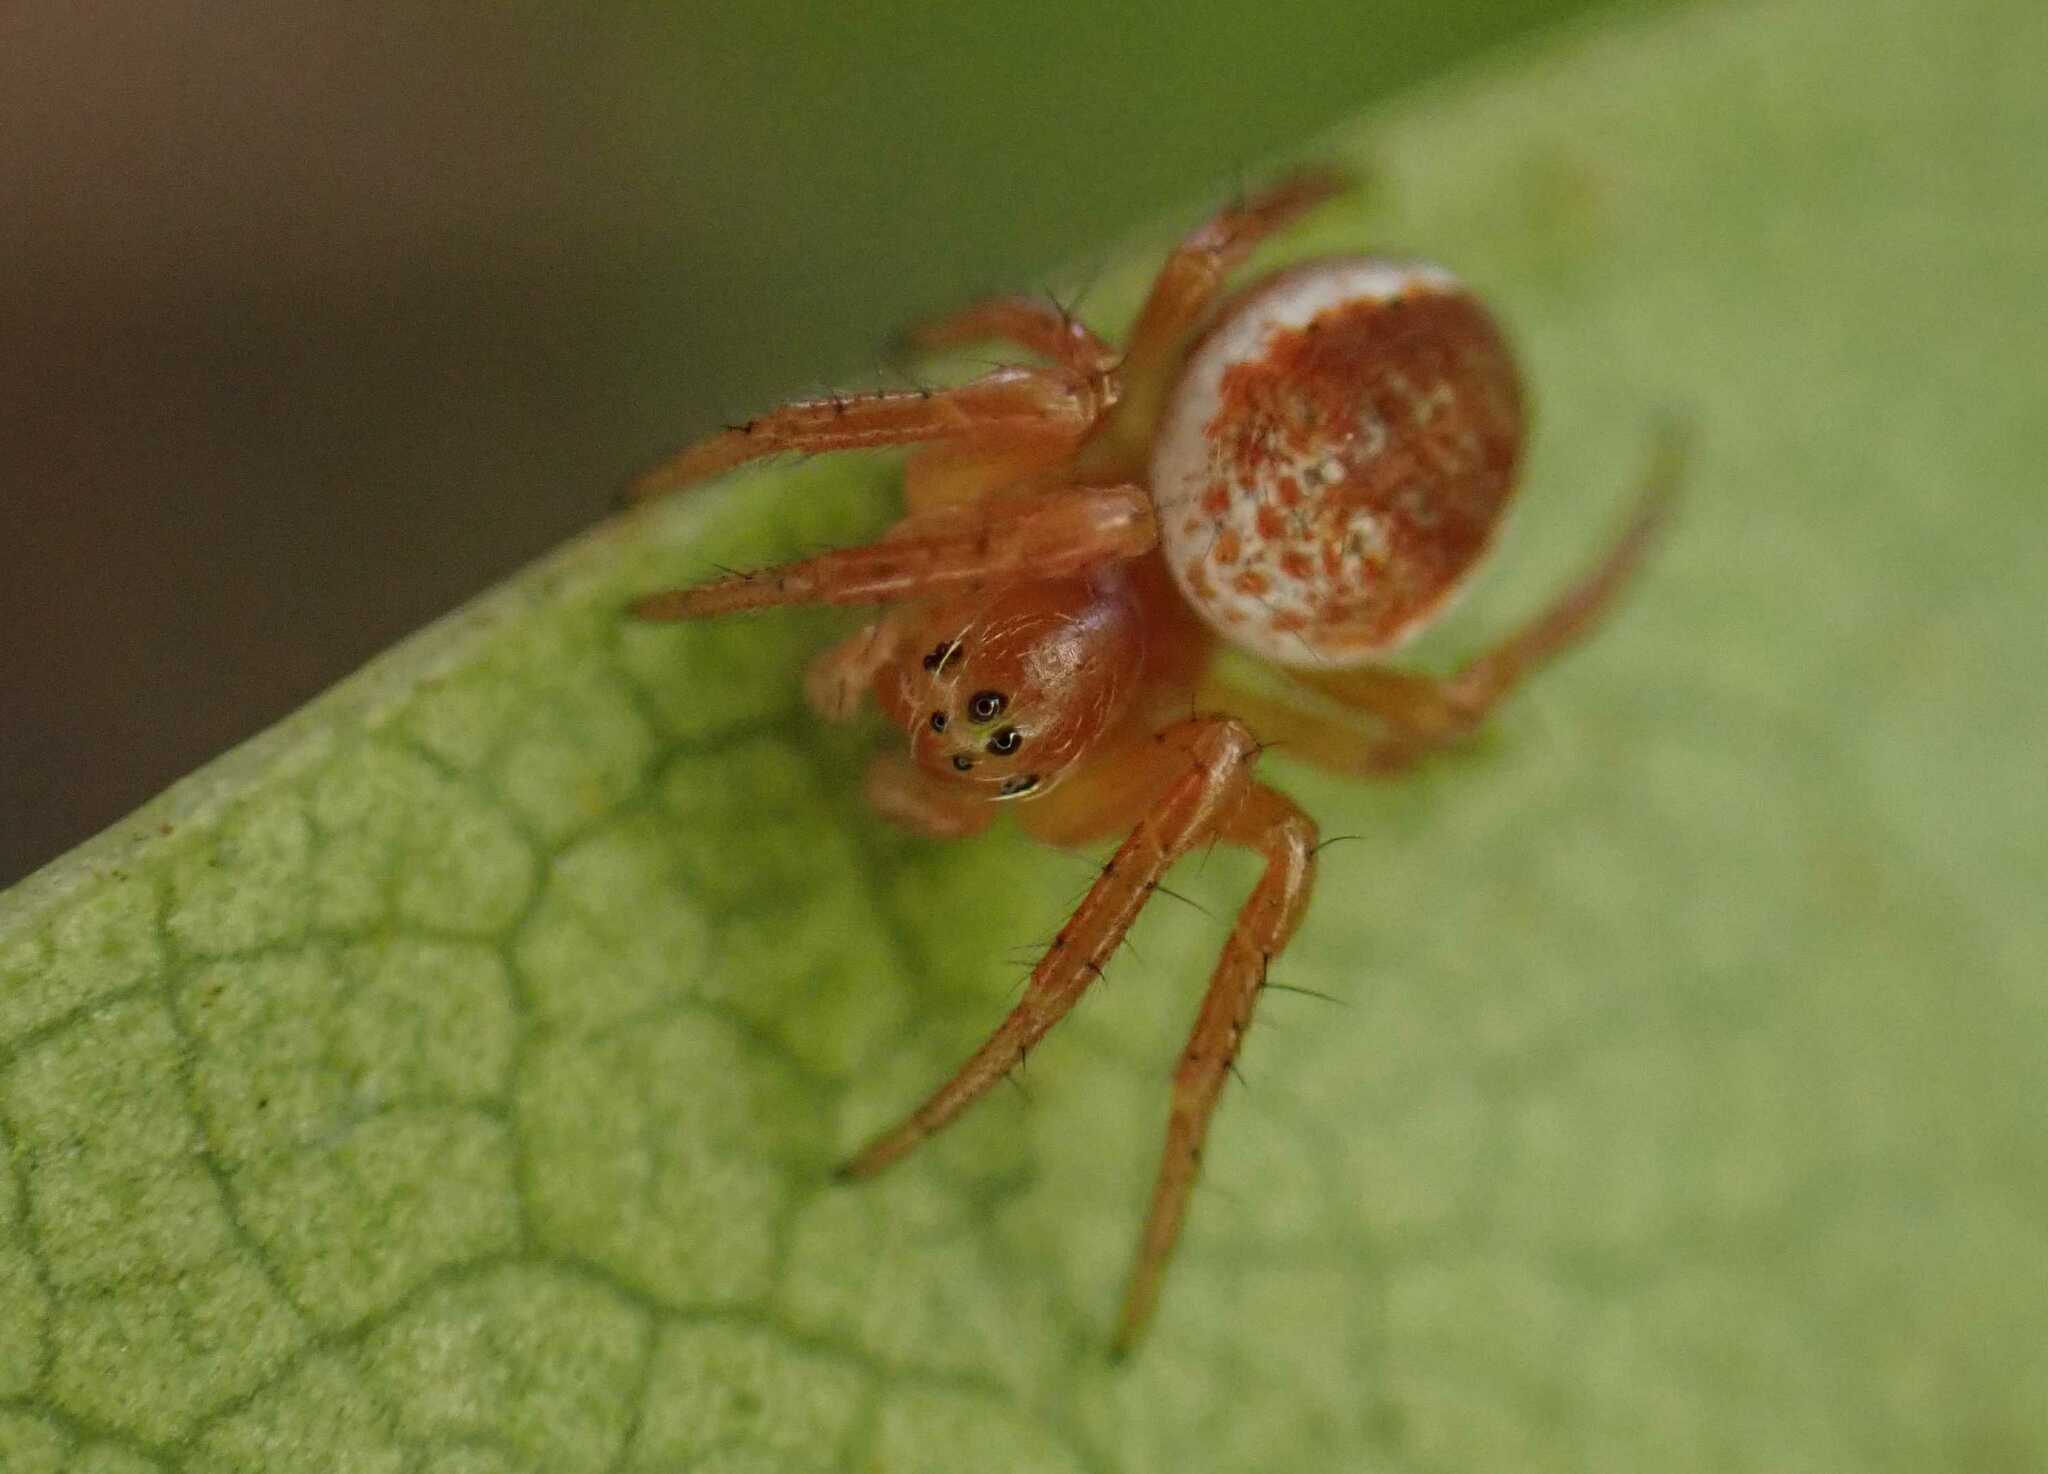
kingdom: Animalia
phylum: Arthropoda
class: Arachnida
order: Araneae
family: Araneidae
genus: Araniella
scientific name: Araniella
